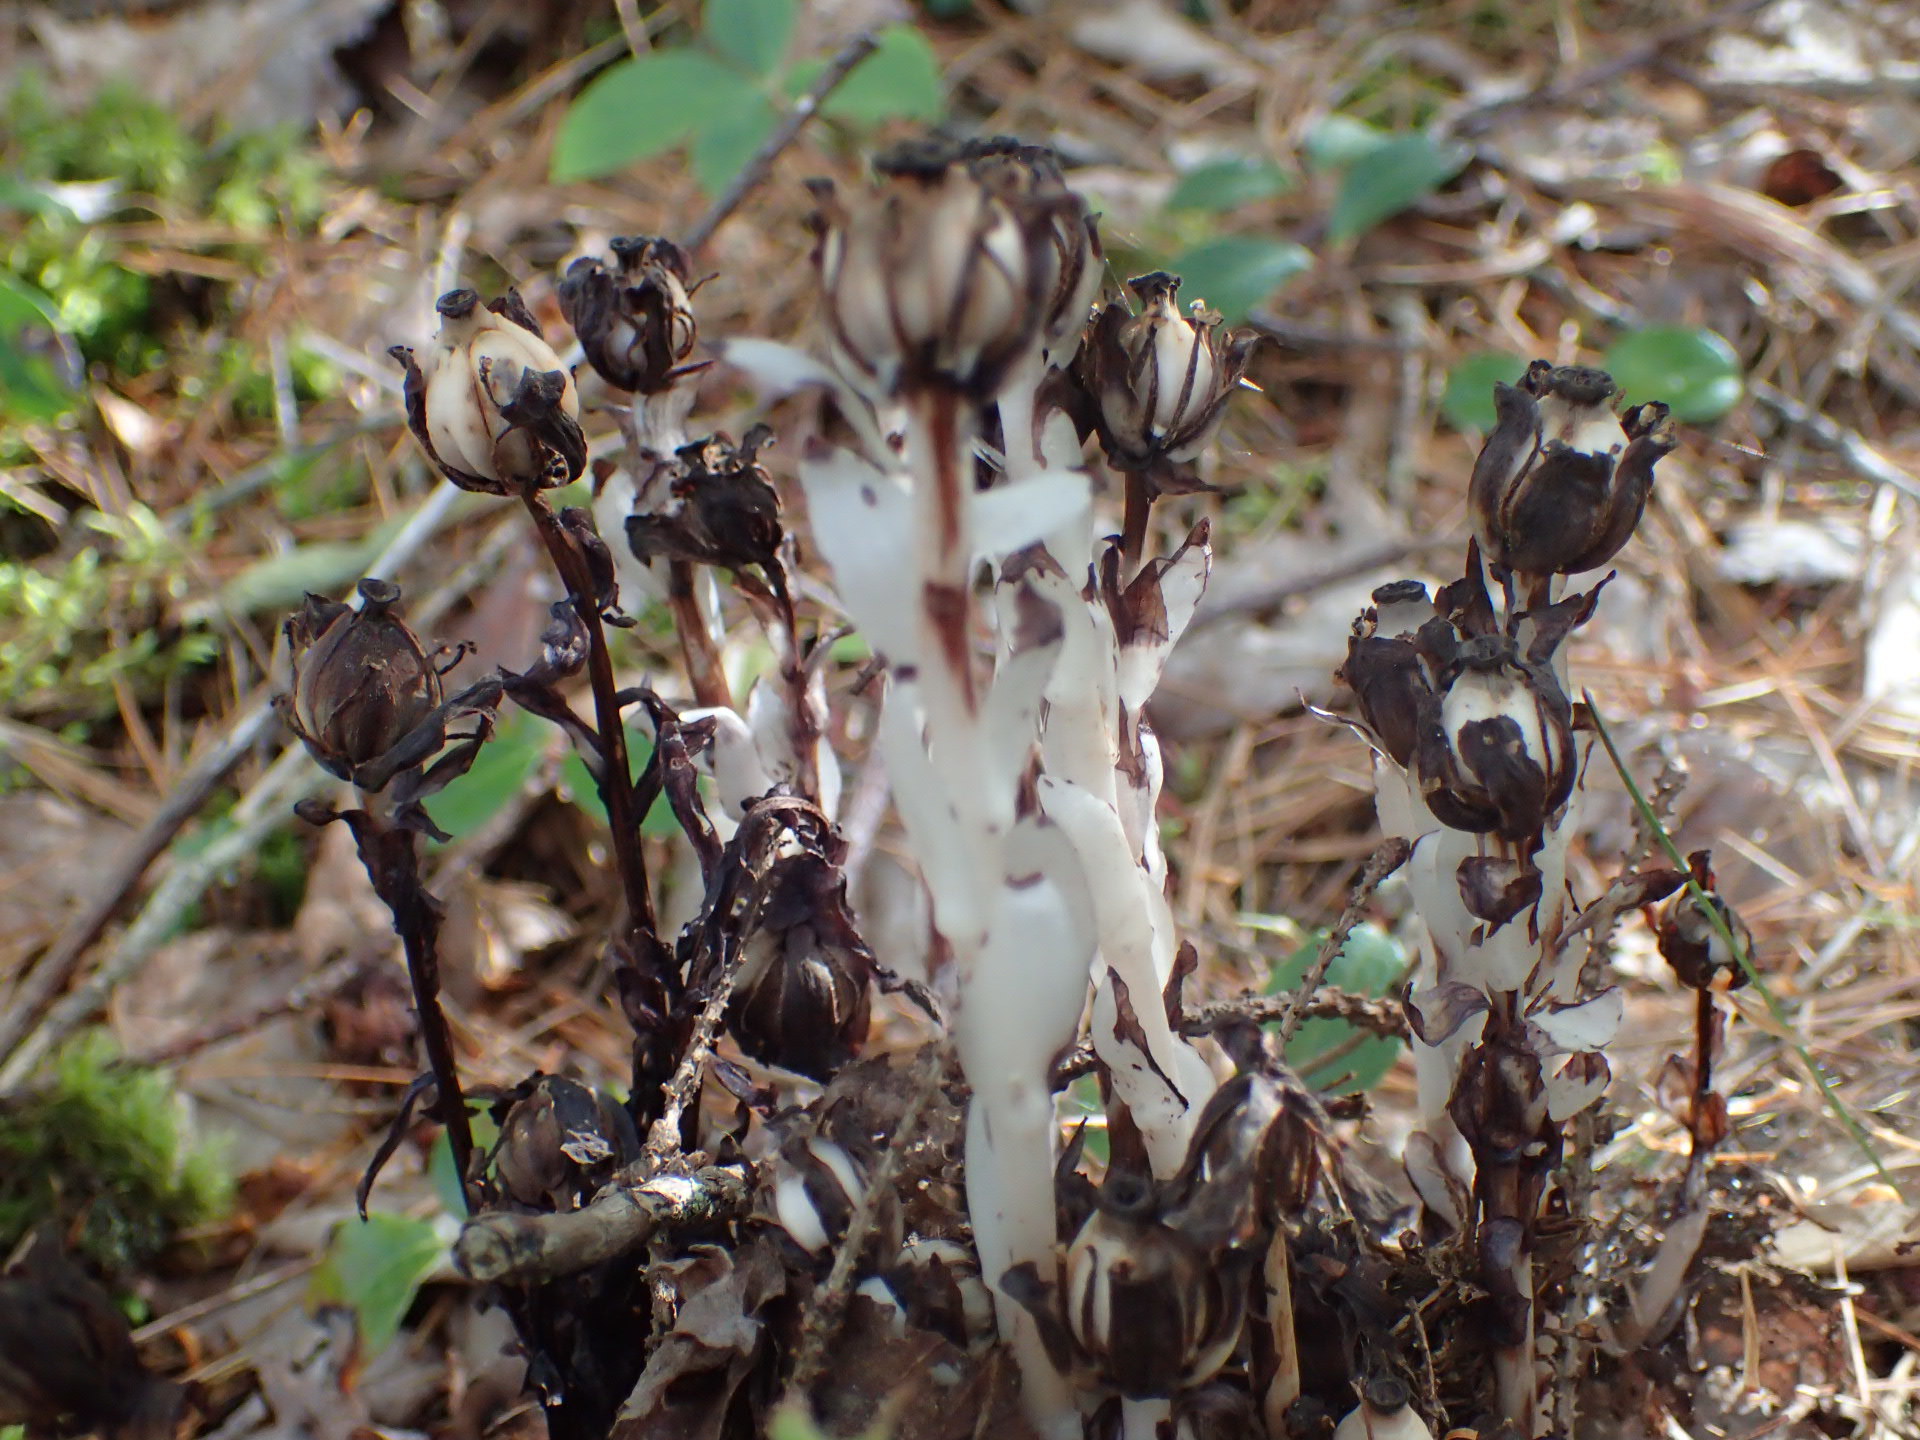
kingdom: Plantae
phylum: Tracheophyta
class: Magnoliopsida
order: Ericales
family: Ericaceae
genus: Monotropa
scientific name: Monotropa uniflora
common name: Convulsion root
